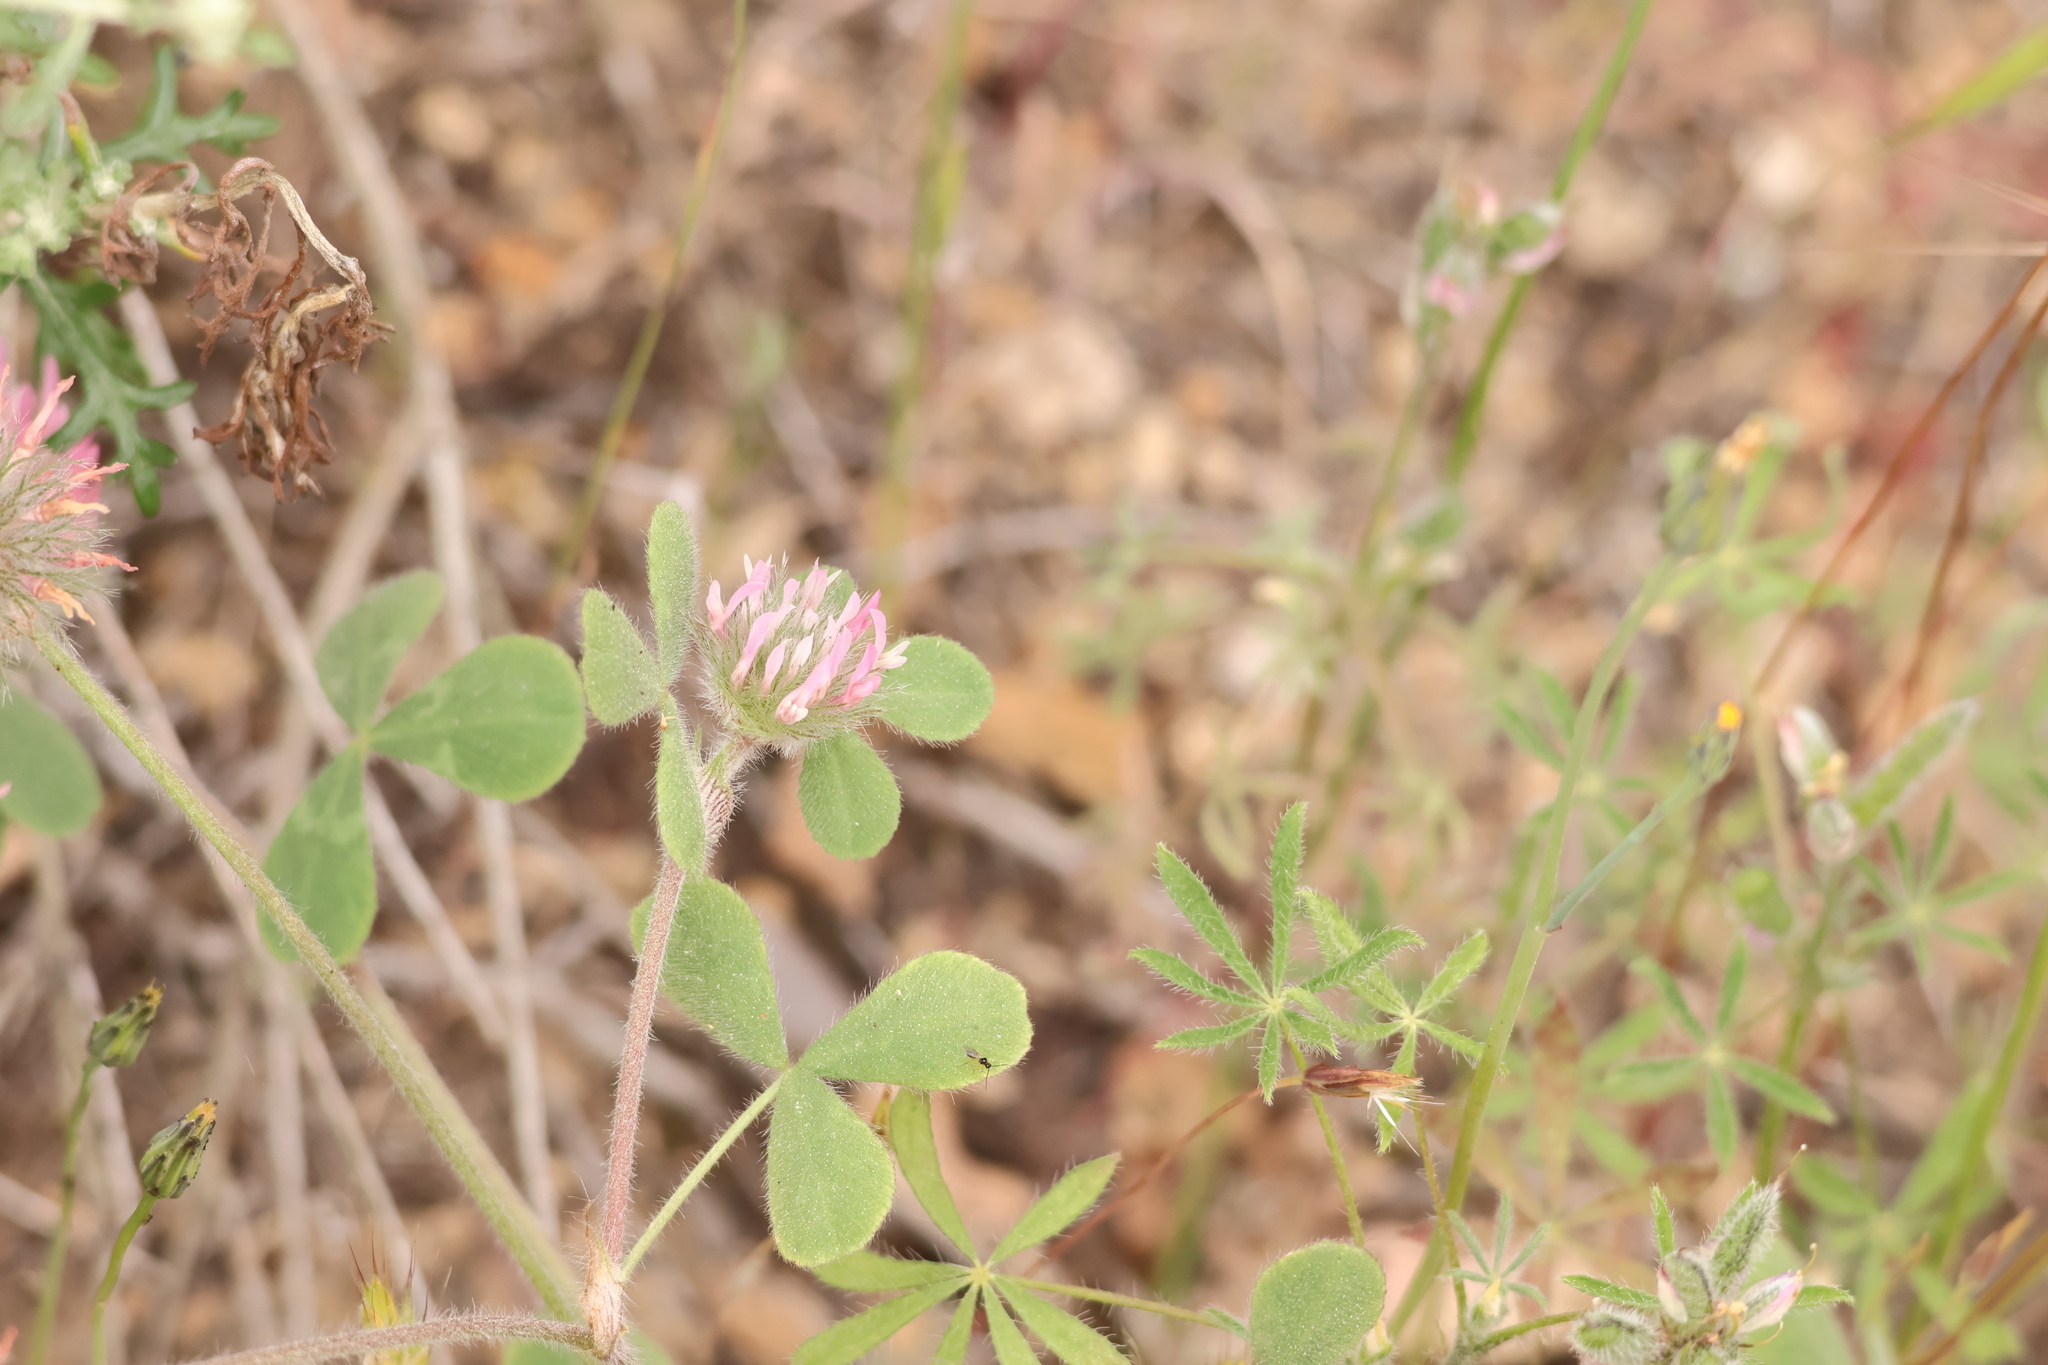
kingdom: Plantae
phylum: Tracheophyta
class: Magnoliopsida
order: Fabales
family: Fabaceae
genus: Trifolium
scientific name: Trifolium hirtum
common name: Rose clover
